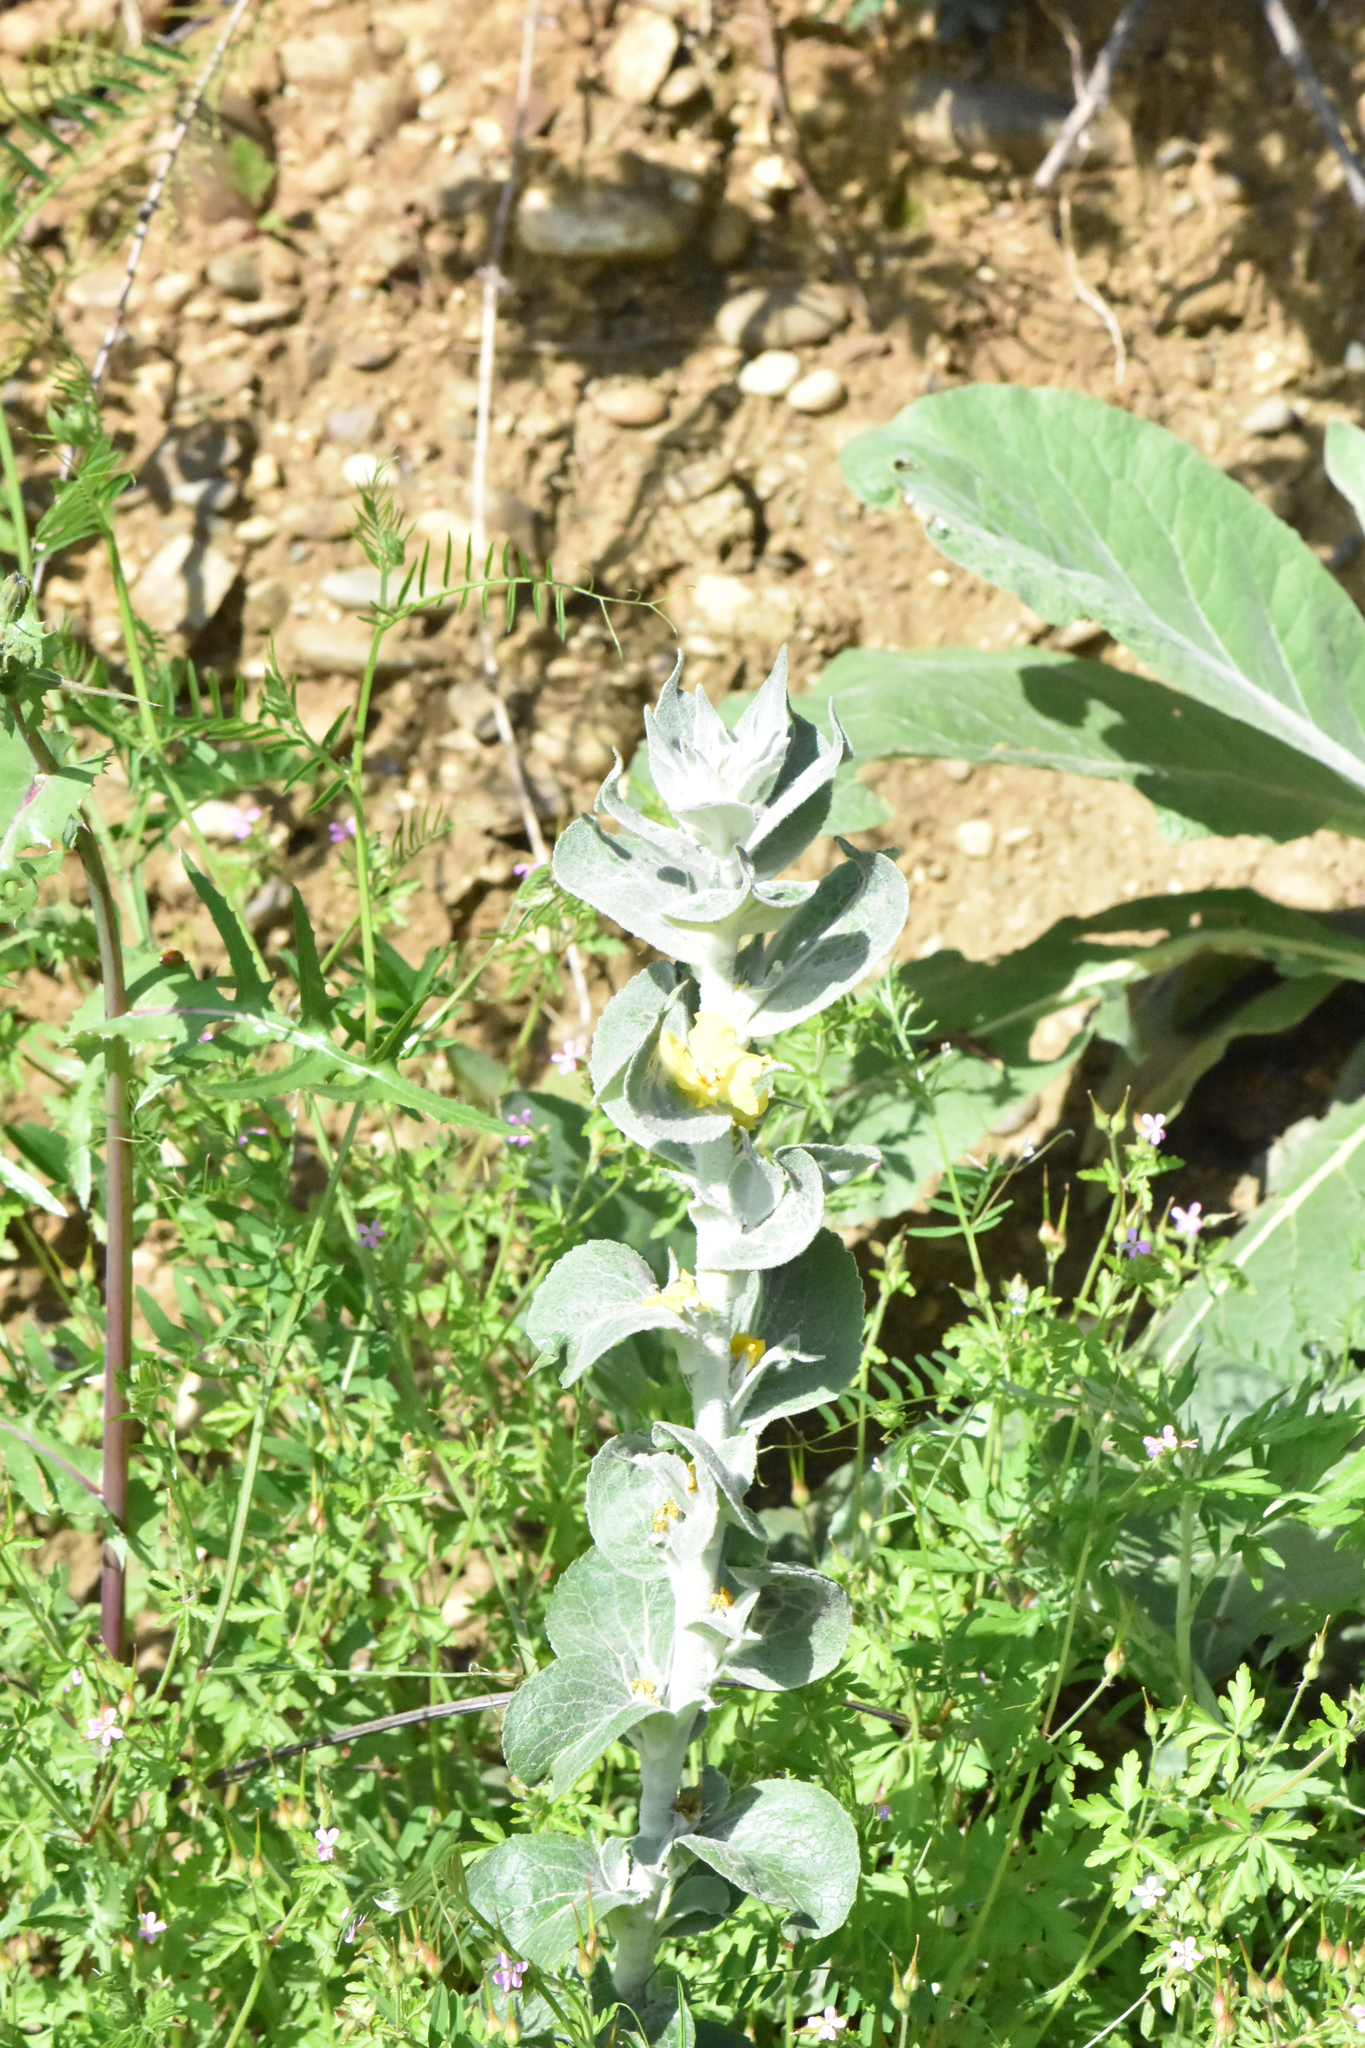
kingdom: Plantae
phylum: Tracheophyta
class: Magnoliopsida
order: Lamiales
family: Scrophulariaceae
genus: Verbascum
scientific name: Verbascum gnaphalodes
